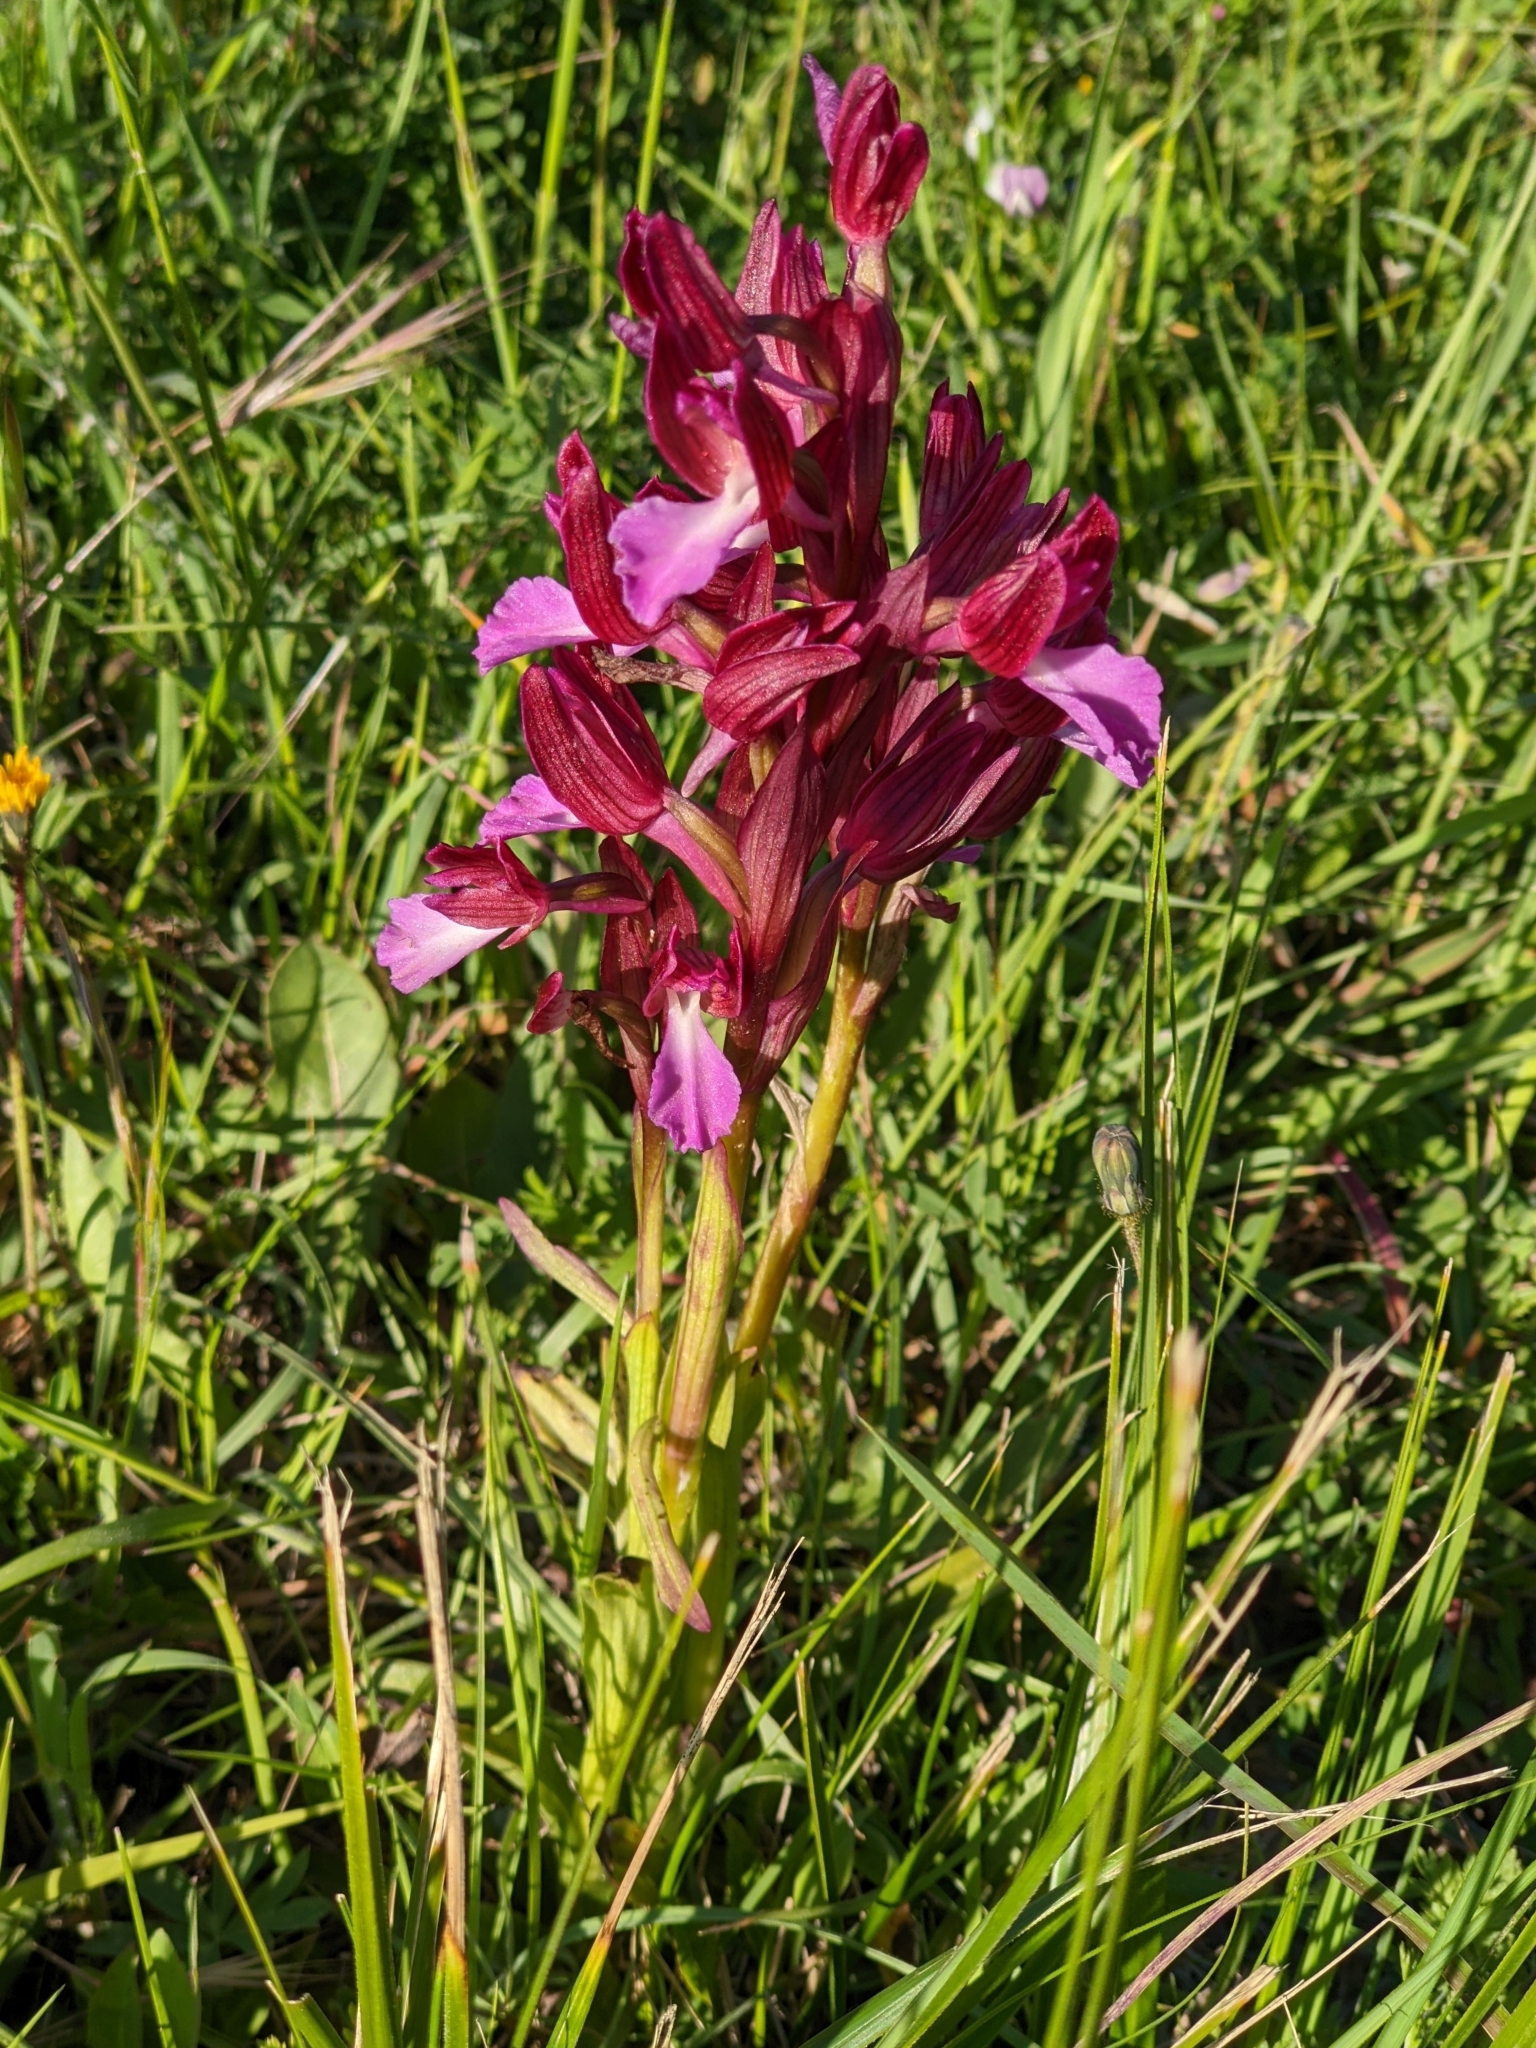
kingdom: Plantae
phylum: Tracheophyta
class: Liliopsida
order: Asparagales
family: Orchidaceae
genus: Anacamptis
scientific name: Anacamptis papilionacea
